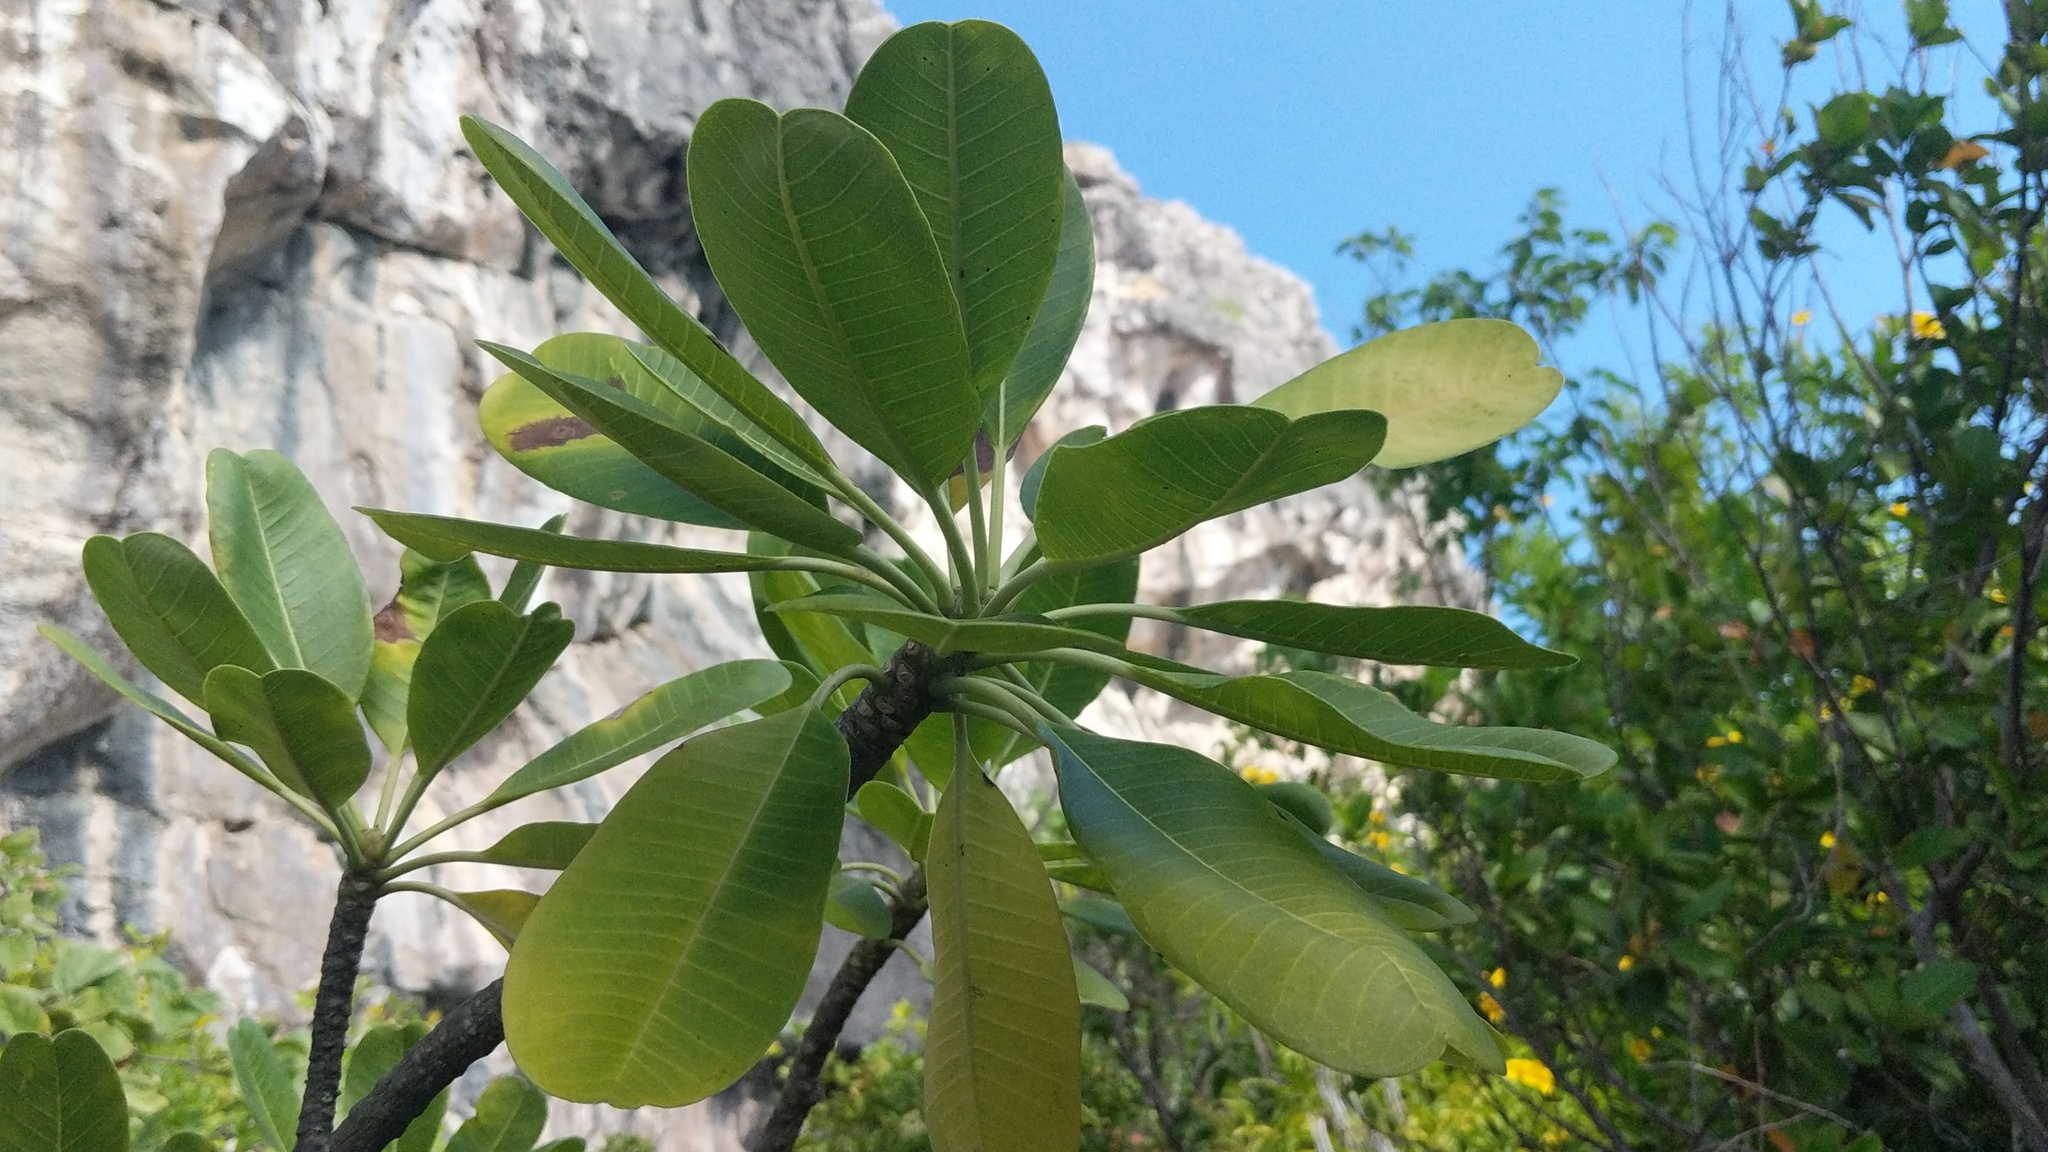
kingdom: Plantae
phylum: Tracheophyta
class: Magnoliopsida
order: Gentianales
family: Apocynaceae
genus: Plumeria
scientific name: Plumeria obtusa
